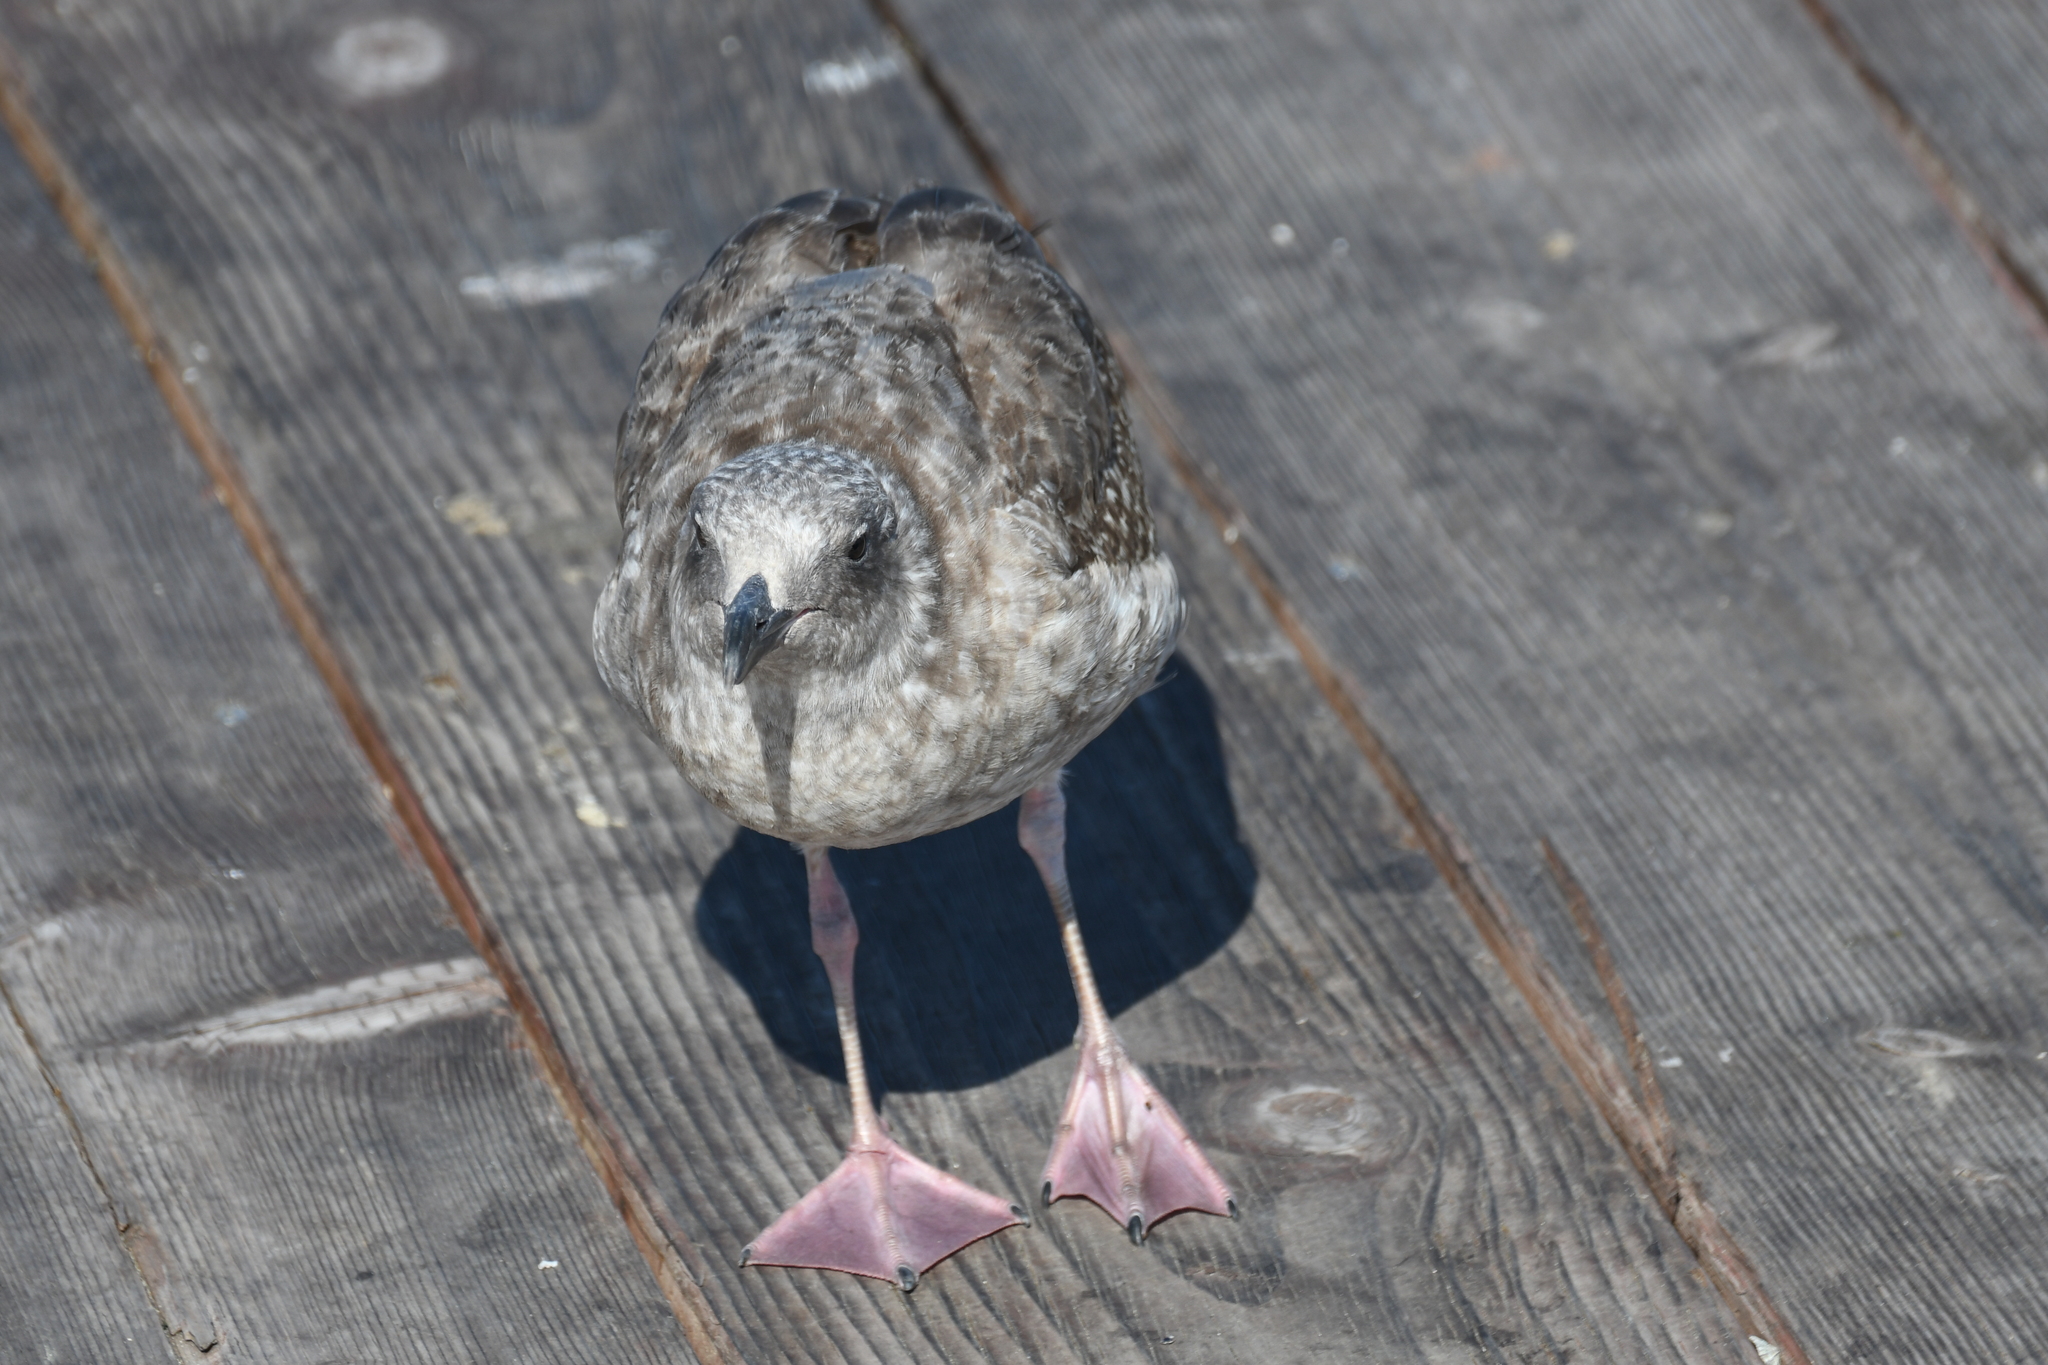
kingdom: Animalia
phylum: Chordata
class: Aves
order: Charadriiformes
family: Laridae
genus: Larus
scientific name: Larus occidentalis
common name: Western gull
